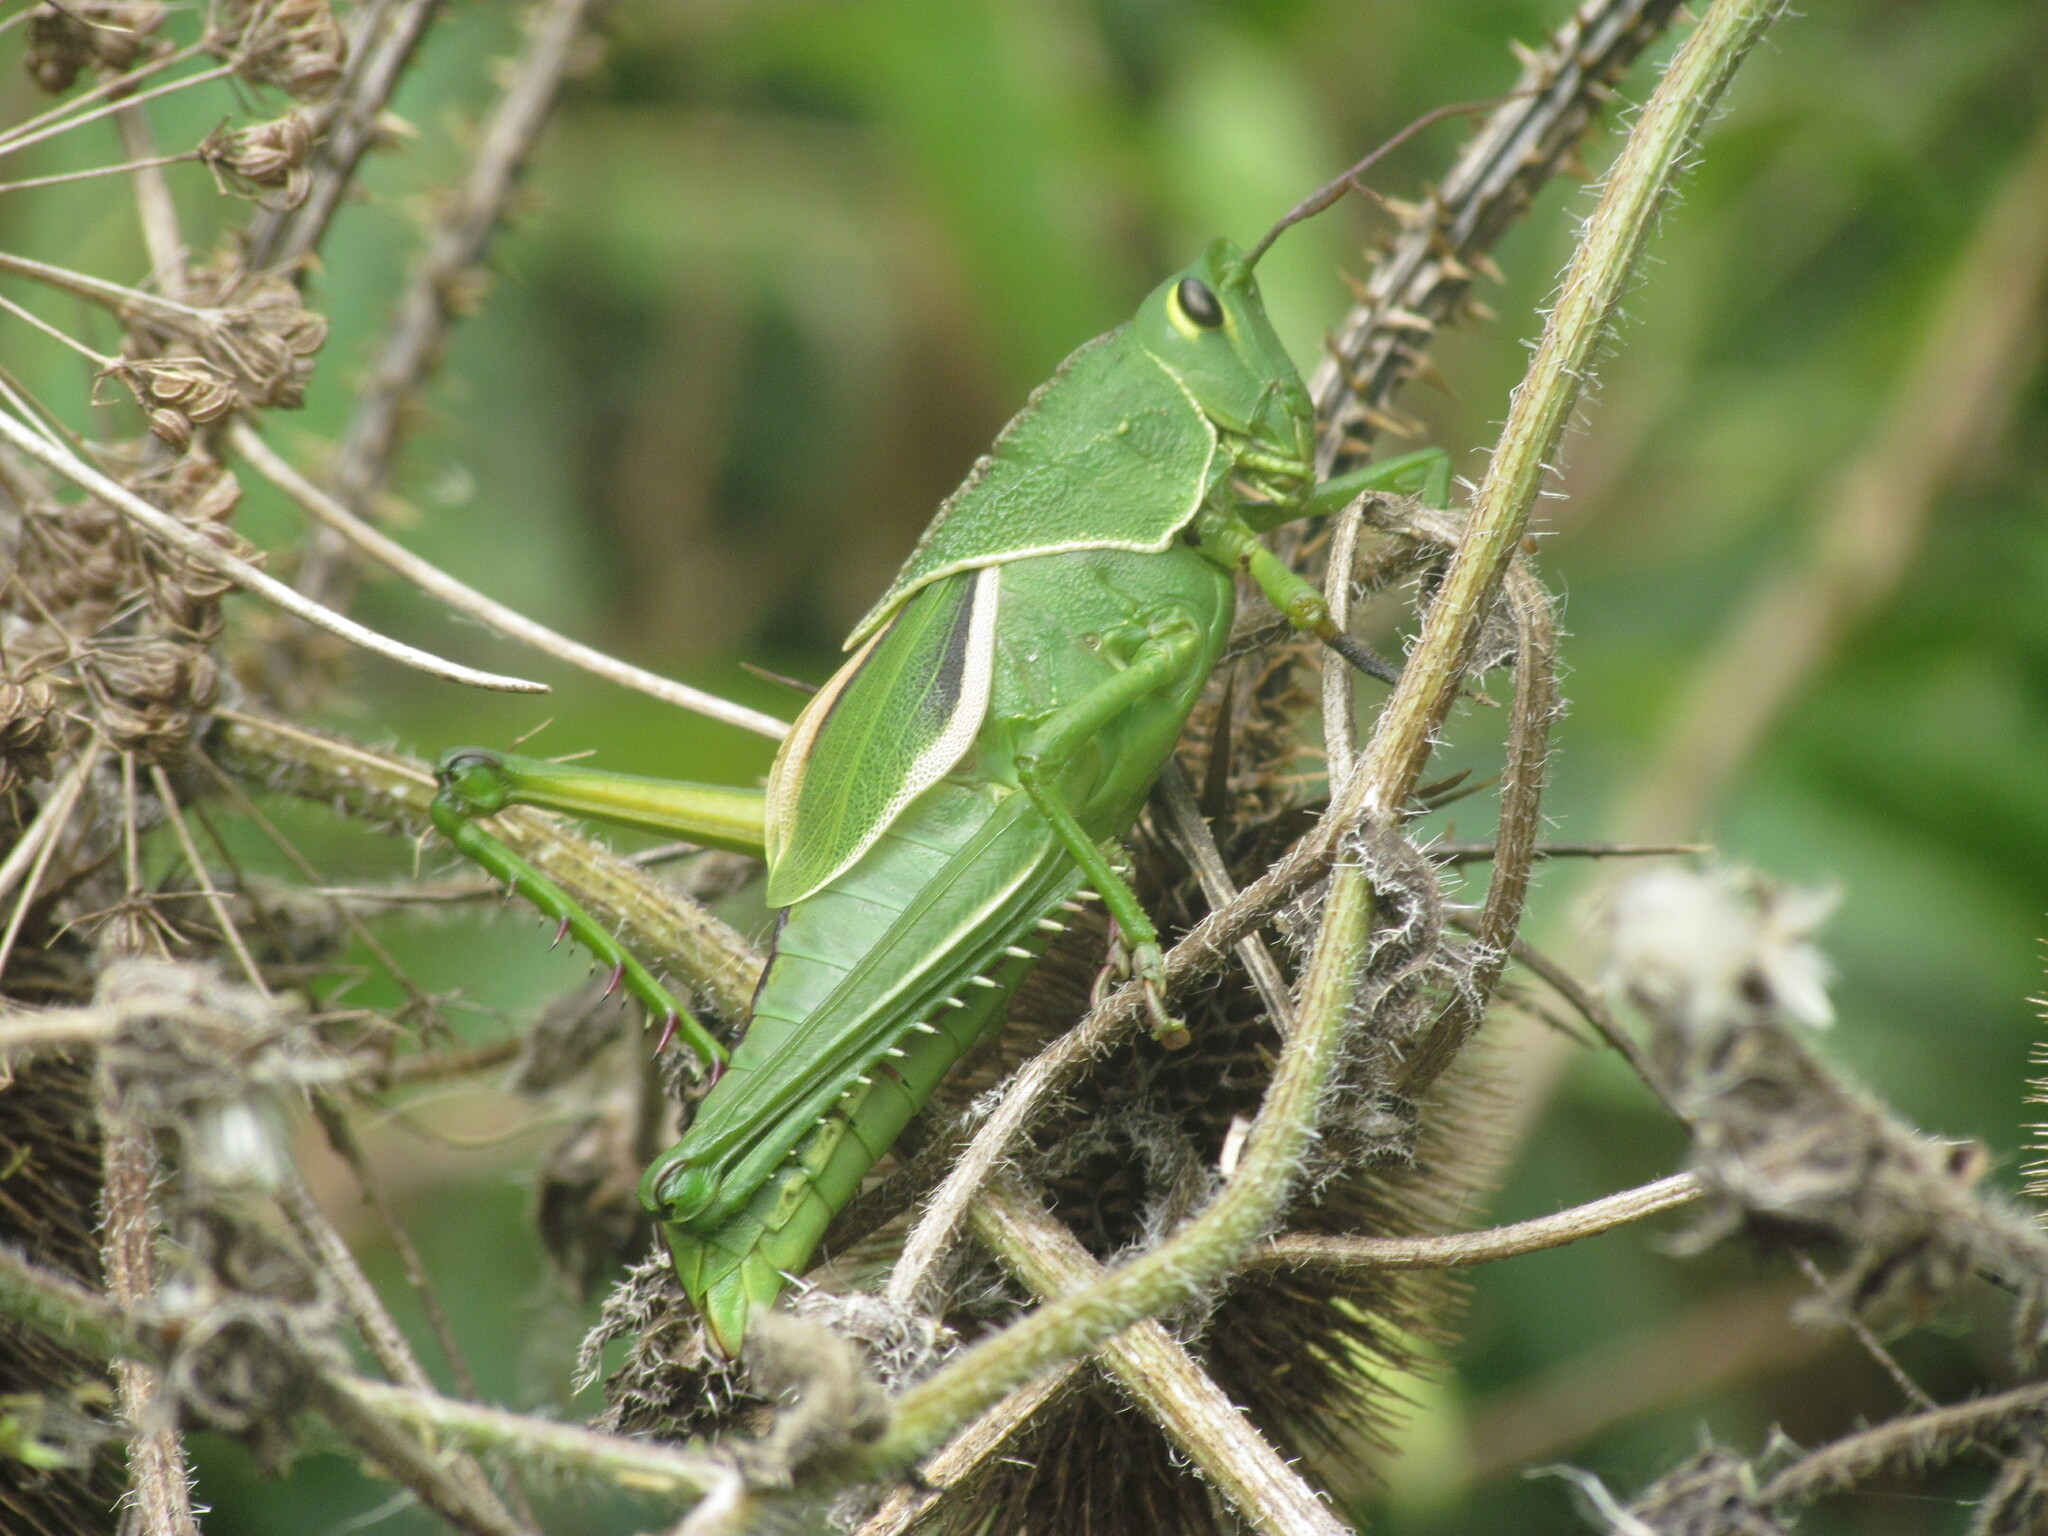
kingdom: Animalia
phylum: Arthropoda
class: Insecta
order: Orthoptera
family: Romaleidae
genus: Staleochlora
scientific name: Staleochlora viridicata
